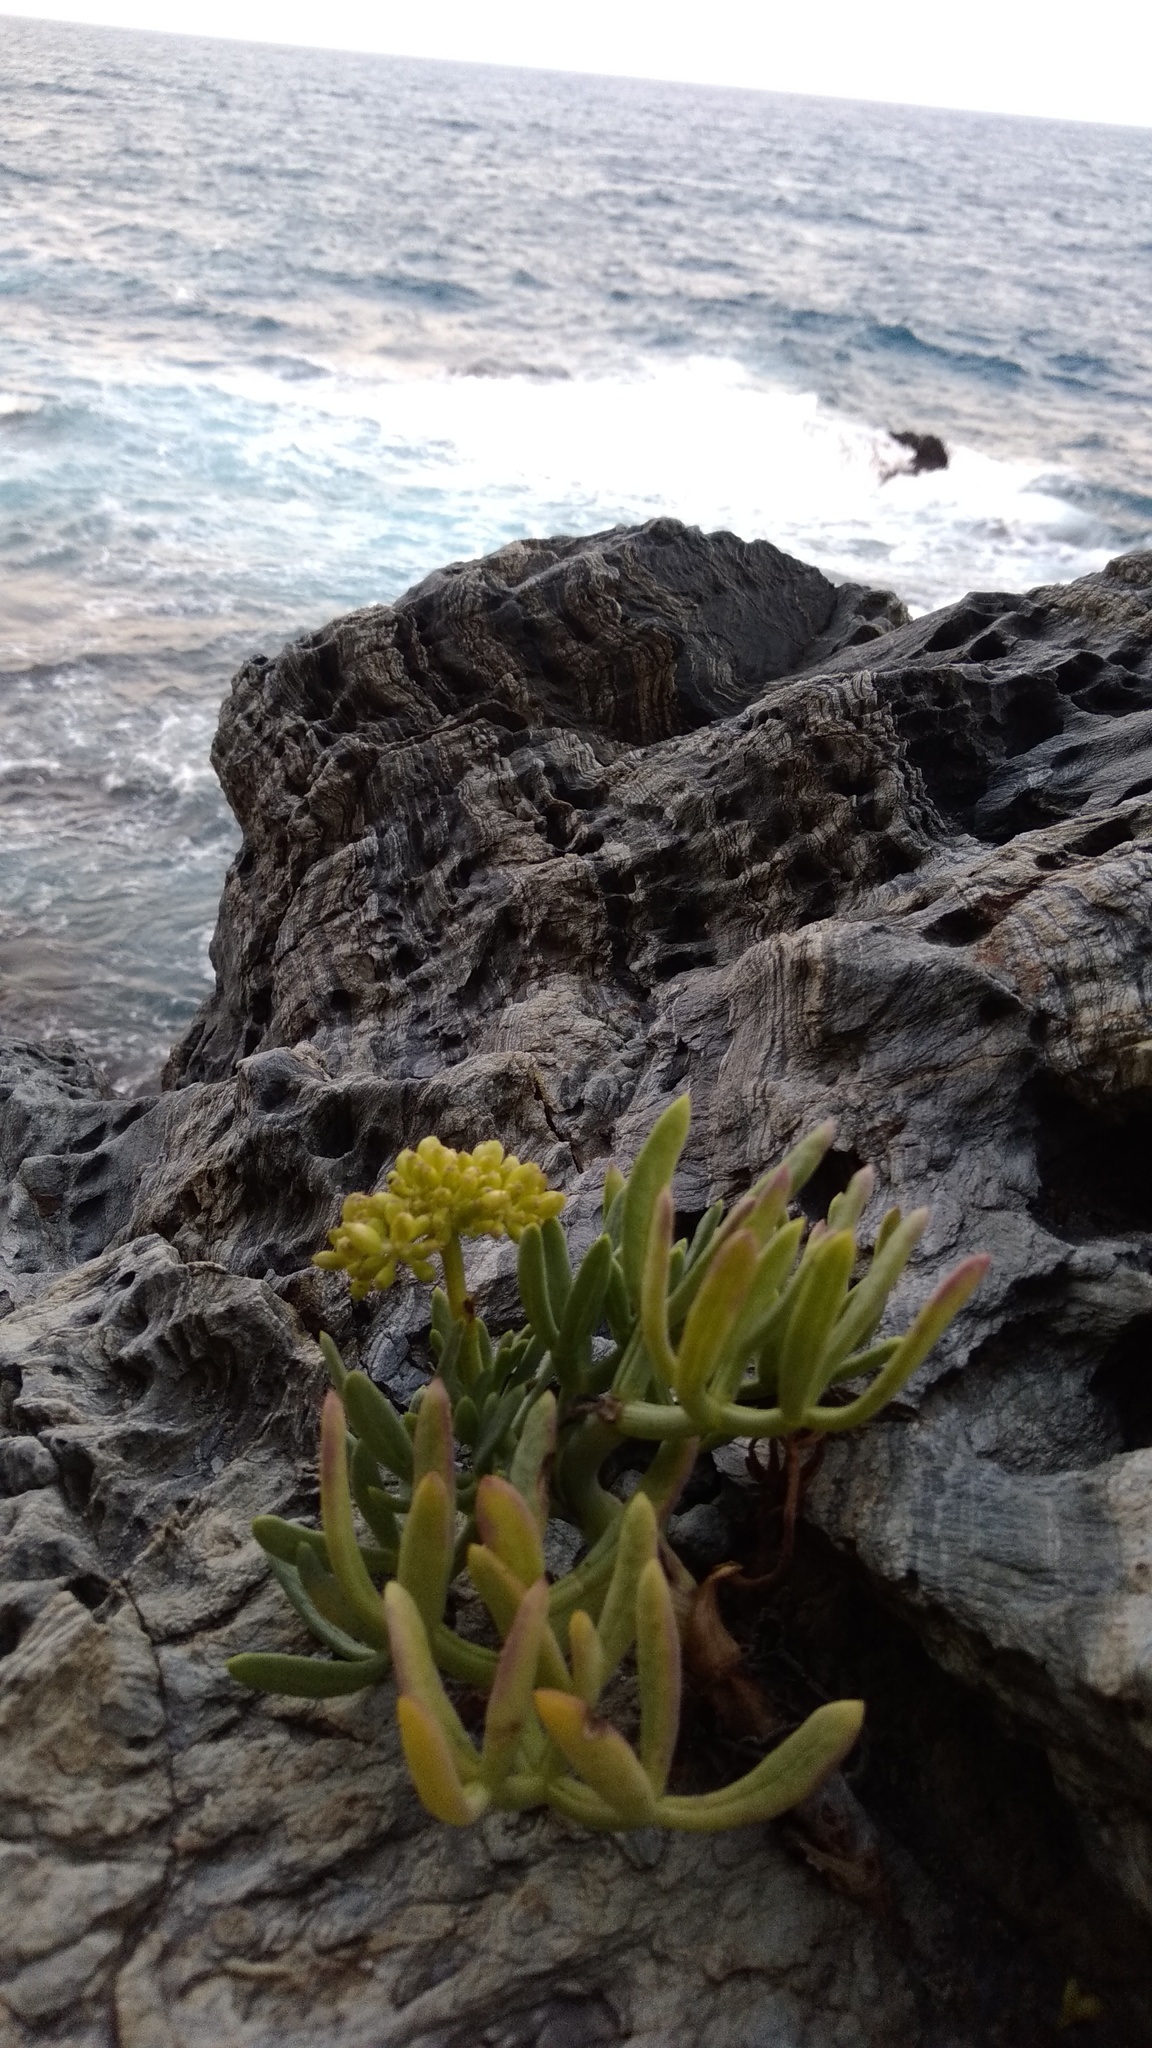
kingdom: Plantae
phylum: Tracheophyta
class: Magnoliopsida
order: Apiales
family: Apiaceae
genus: Crithmum
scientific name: Crithmum maritimum
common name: Rock samphire
